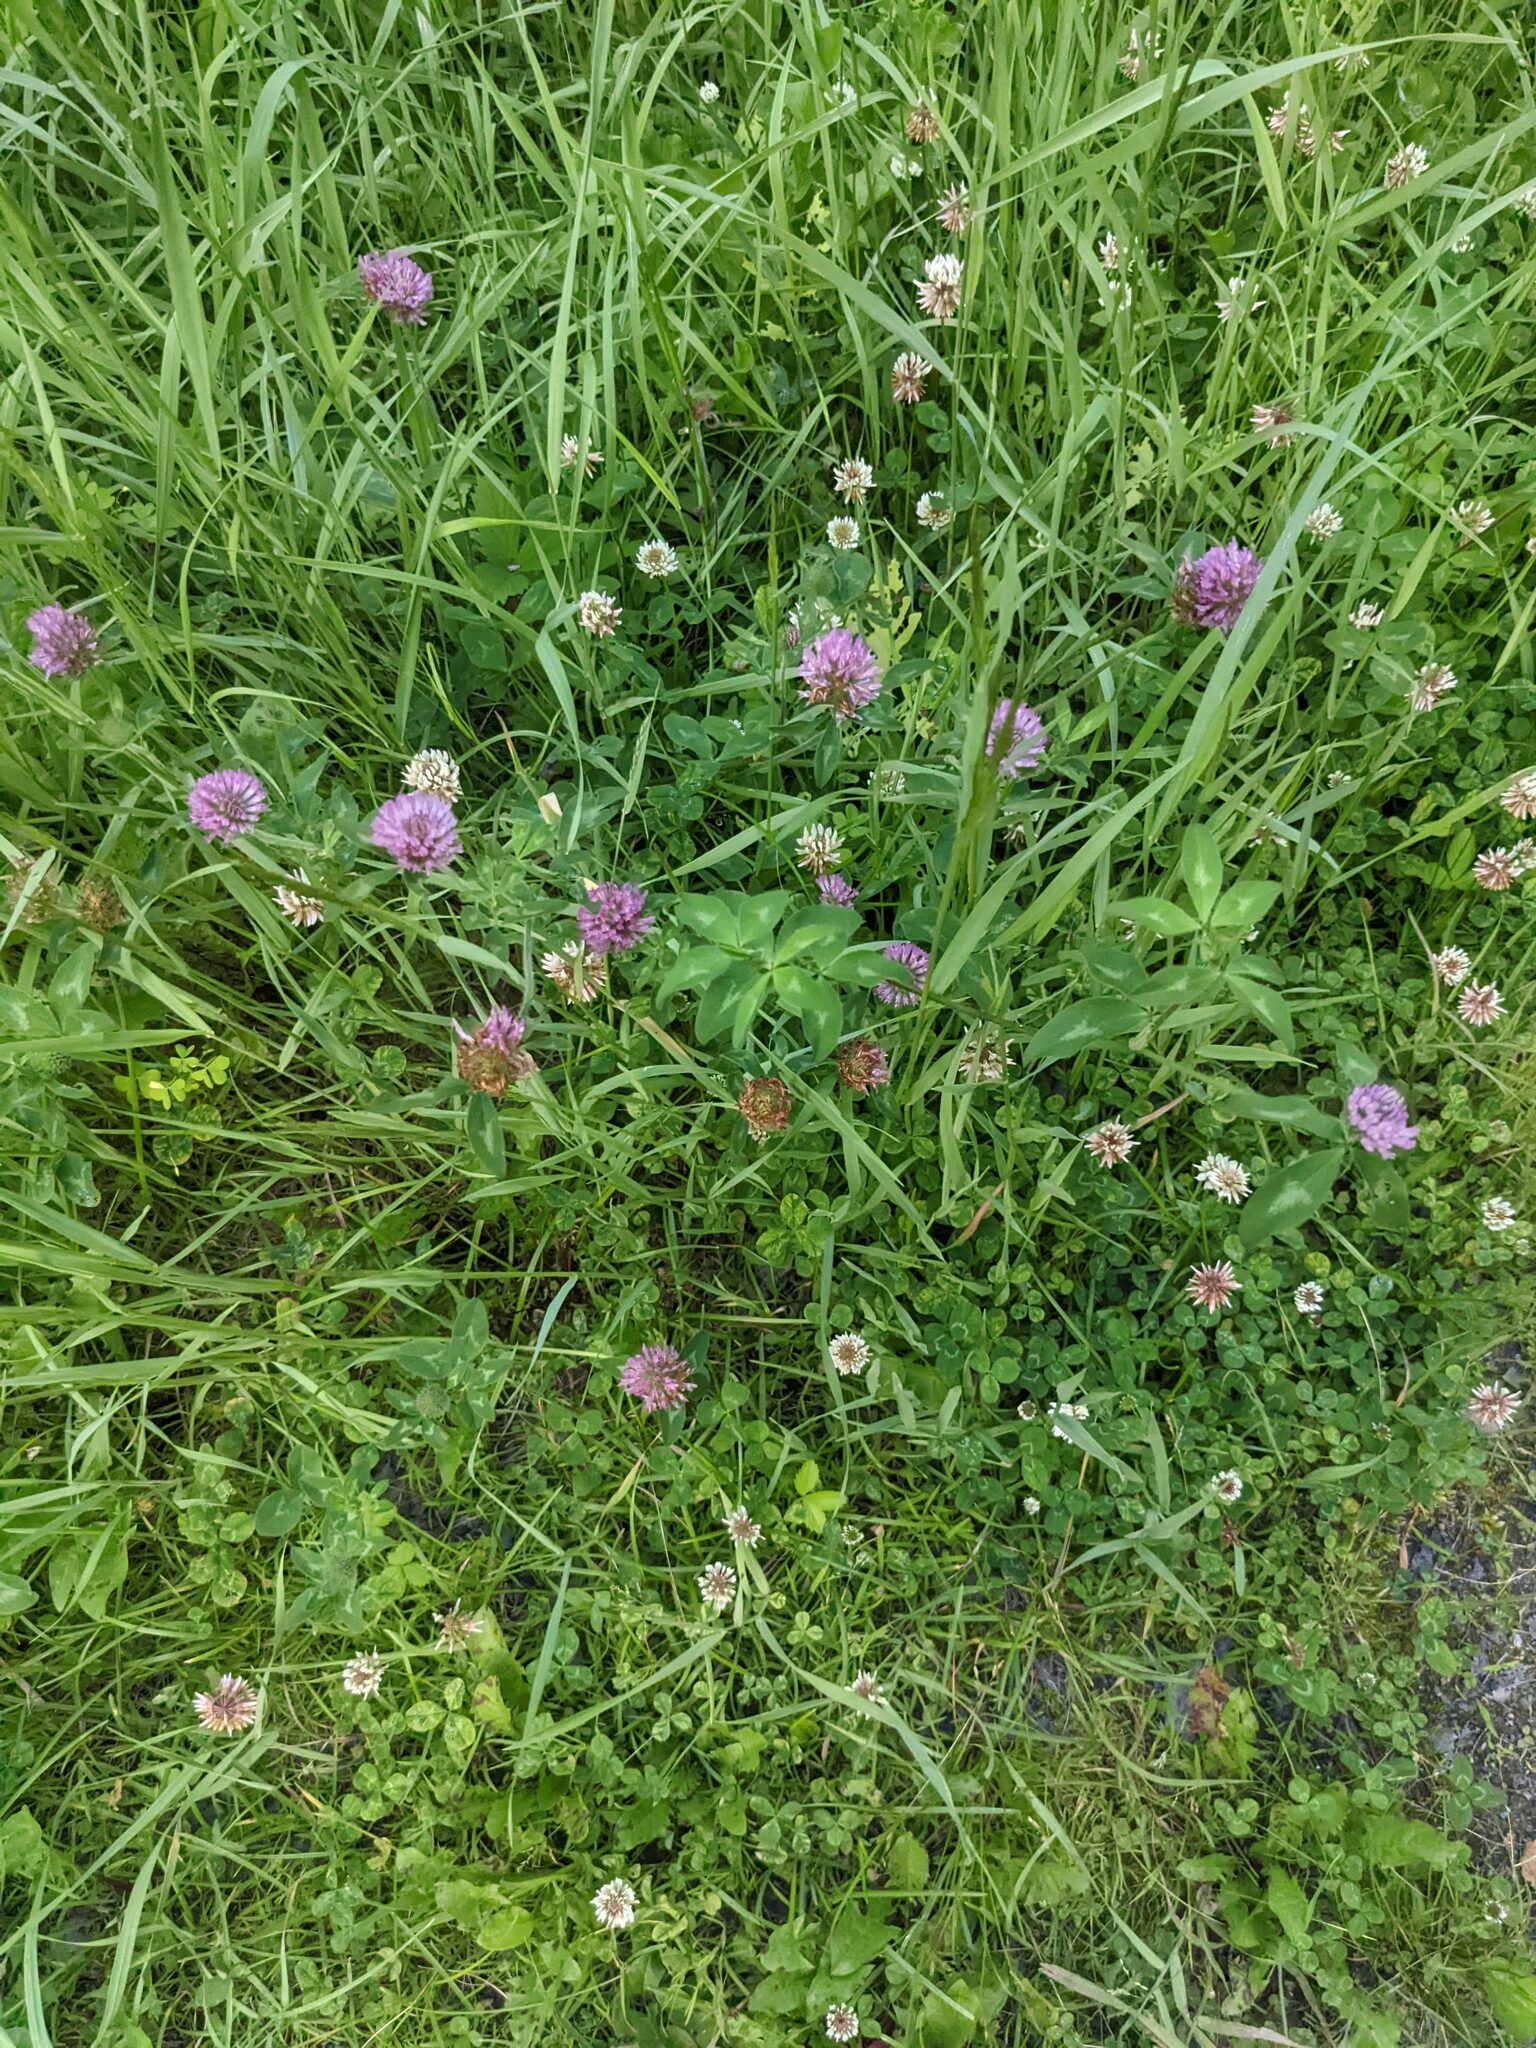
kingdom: Plantae
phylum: Tracheophyta
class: Magnoliopsida
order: Fabales
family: Fabaceae
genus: Trifolium
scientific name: Trifolium pratense
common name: Red clover
